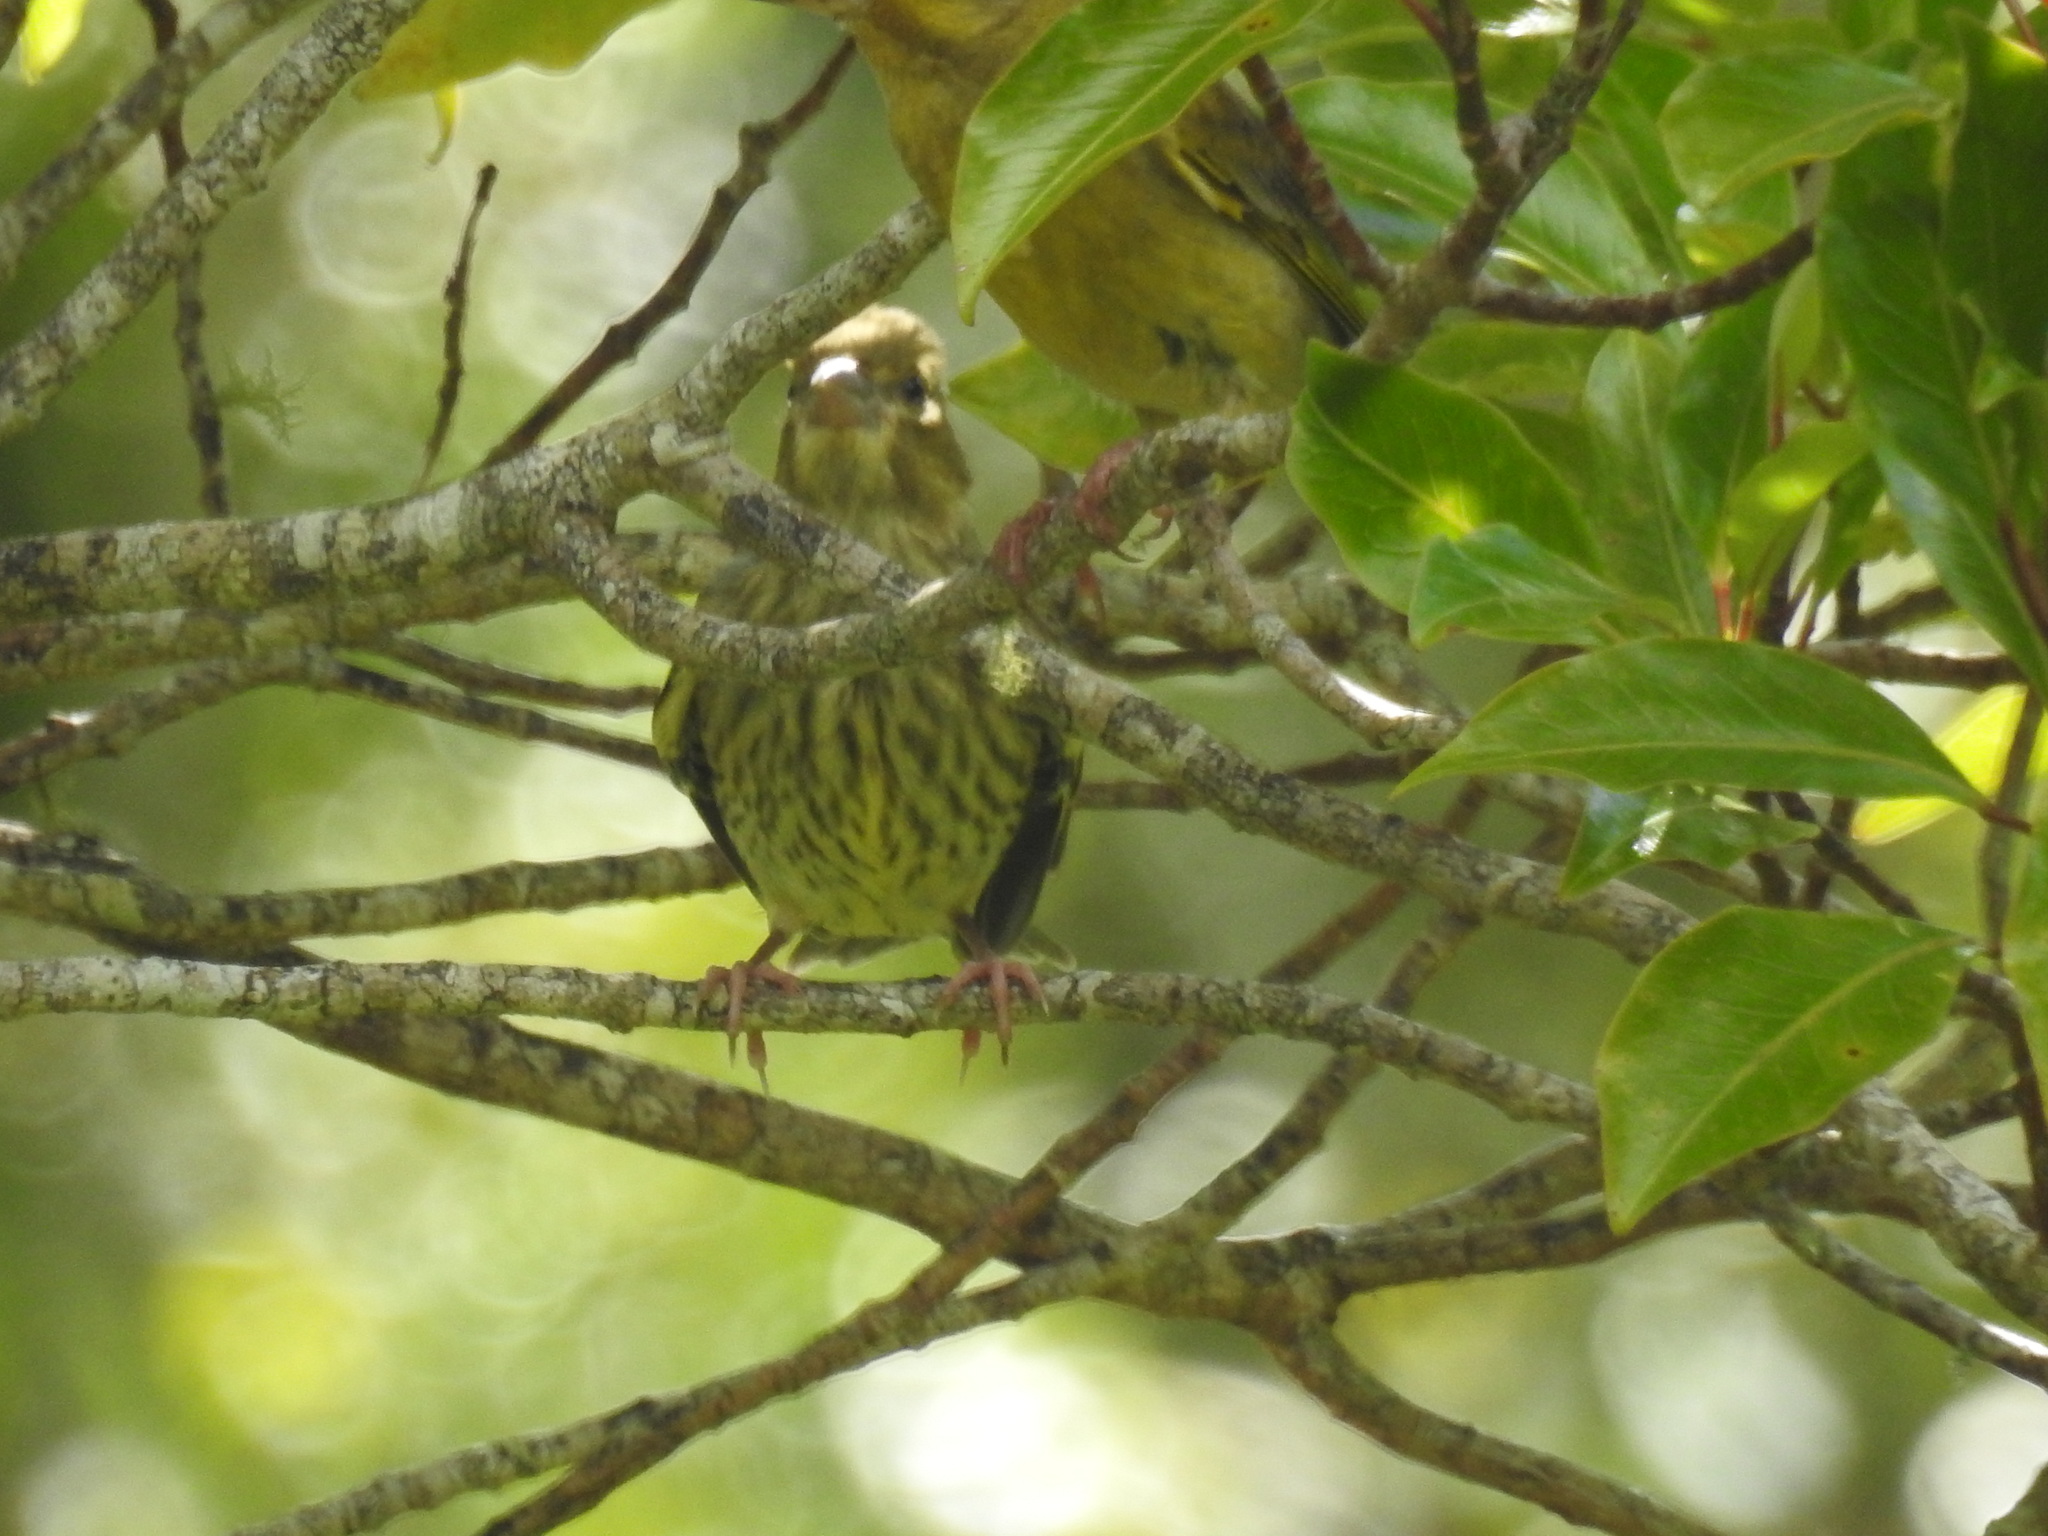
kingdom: Plantae
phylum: Tracheophyta
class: Liliopsida
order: Poales
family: Poaceae
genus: Chloris
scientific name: Chloris chloris
